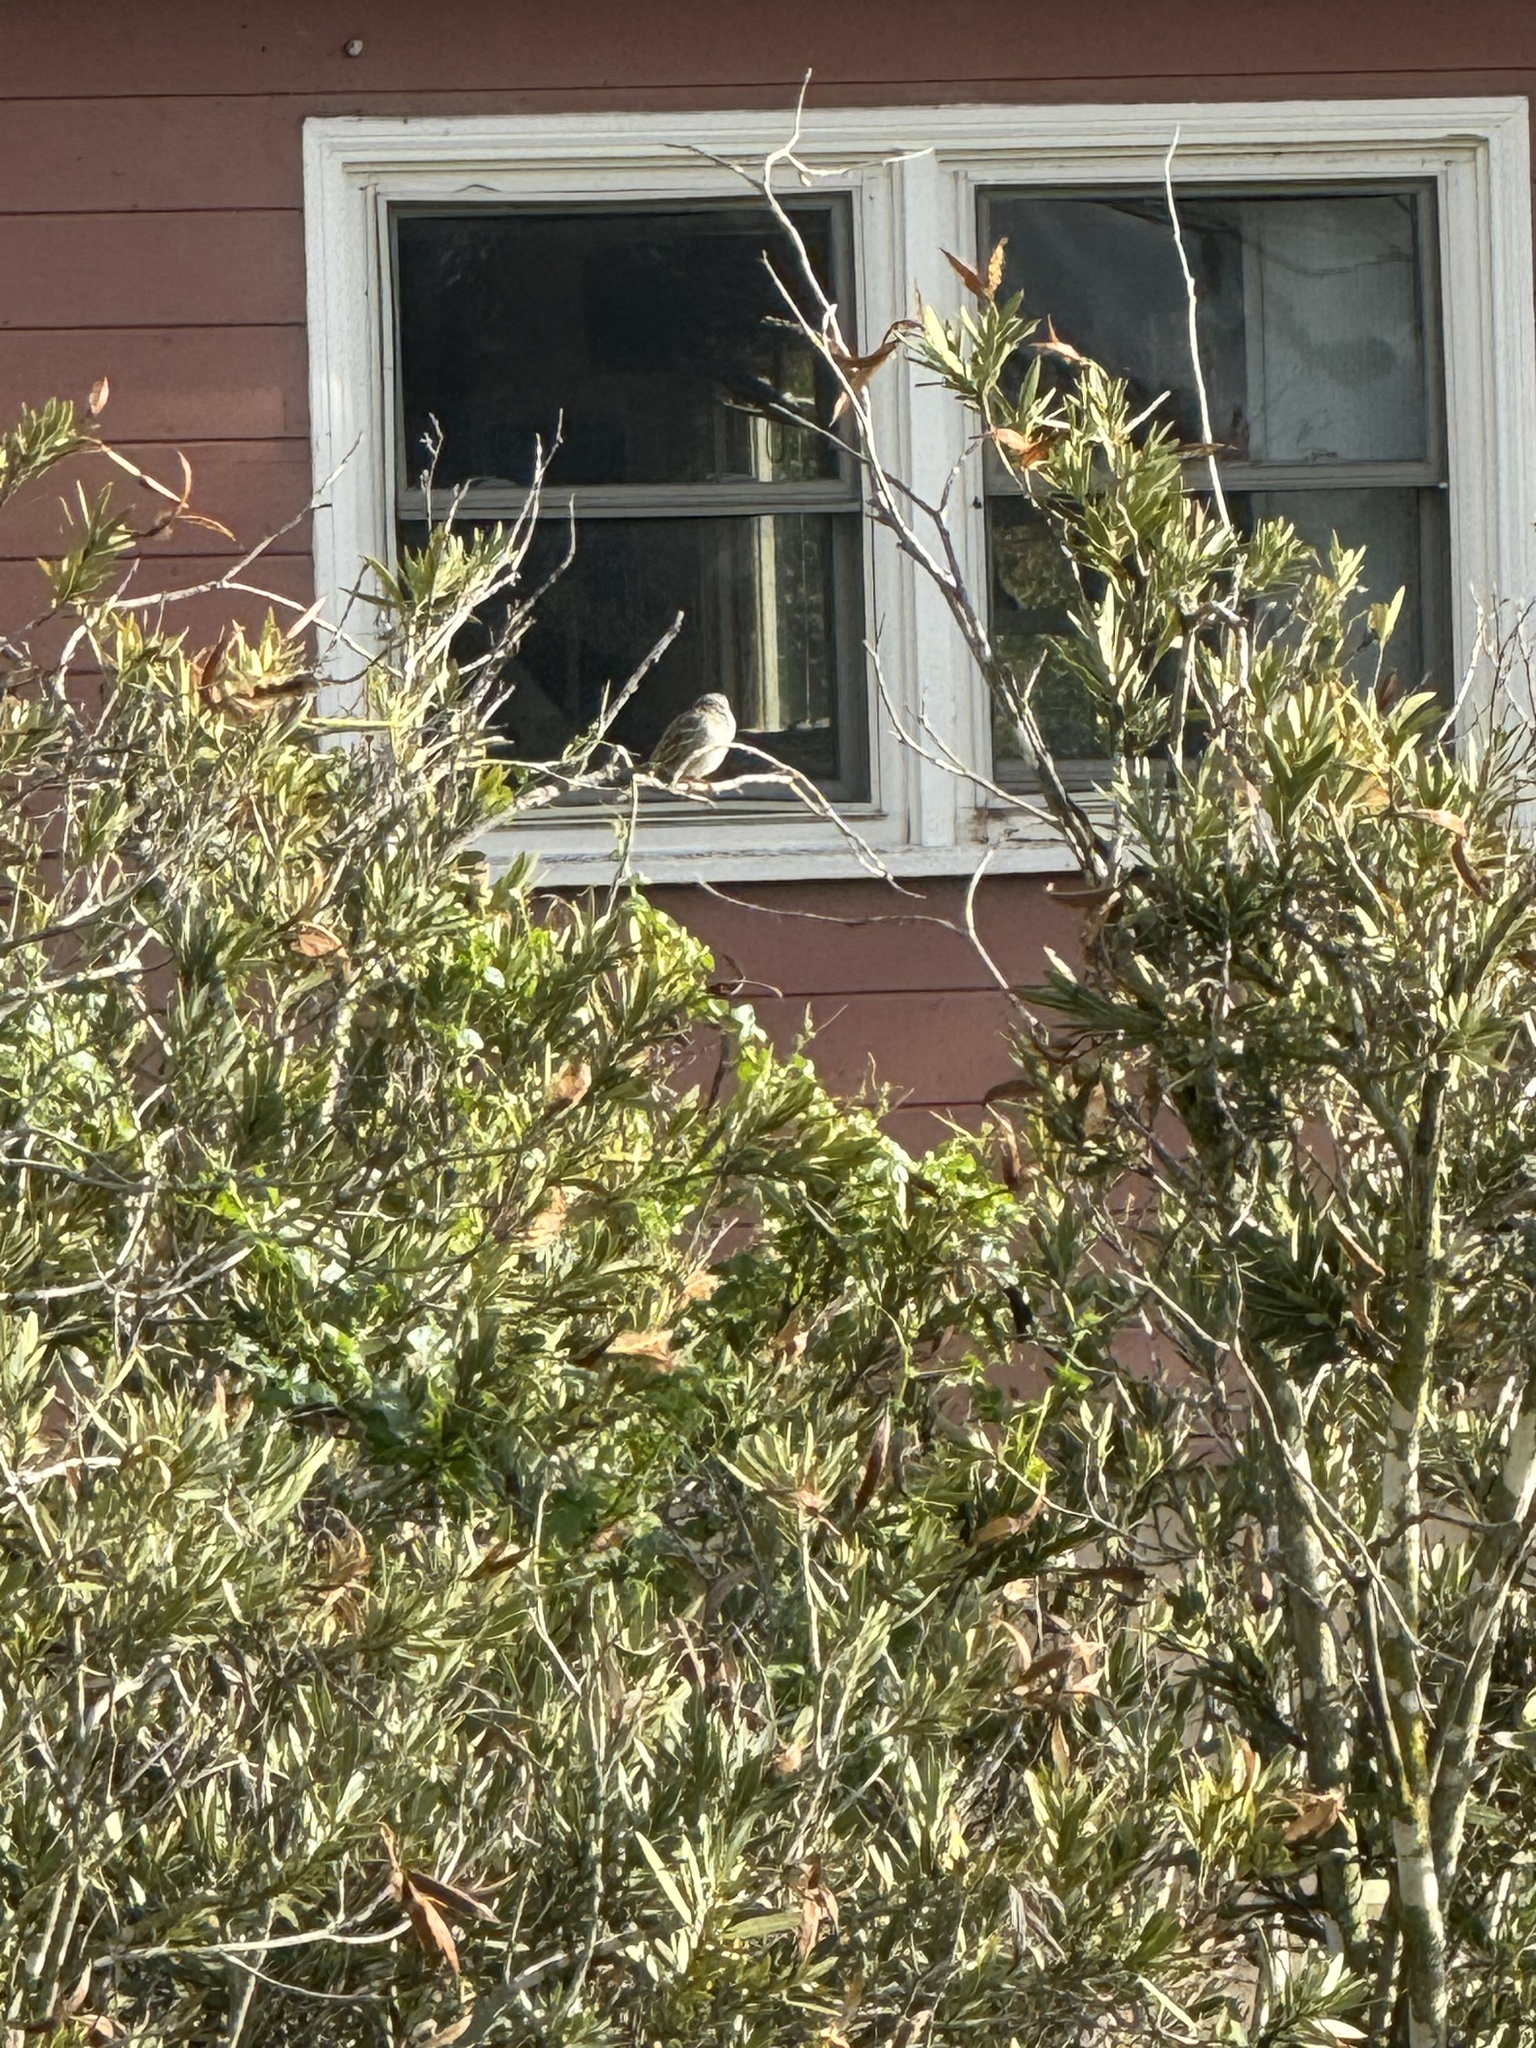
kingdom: Animalia
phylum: Chordata
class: Aves
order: Passeriformes
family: Passerellidae
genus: Zonotrichia
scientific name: Zonotrichia leucophrys
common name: White-crowned sparrow
